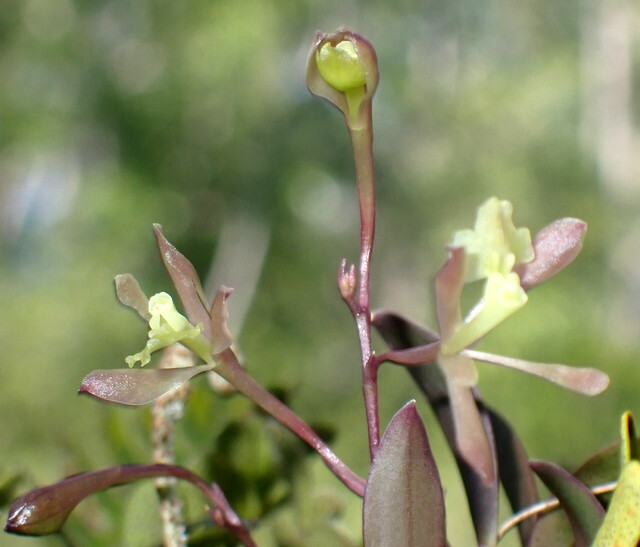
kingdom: Plantae
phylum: Tracheophyta
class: Liliopsida
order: Asparagales
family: Orchidaceae
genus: Epidendrum
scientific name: Epidendrum conopseum
